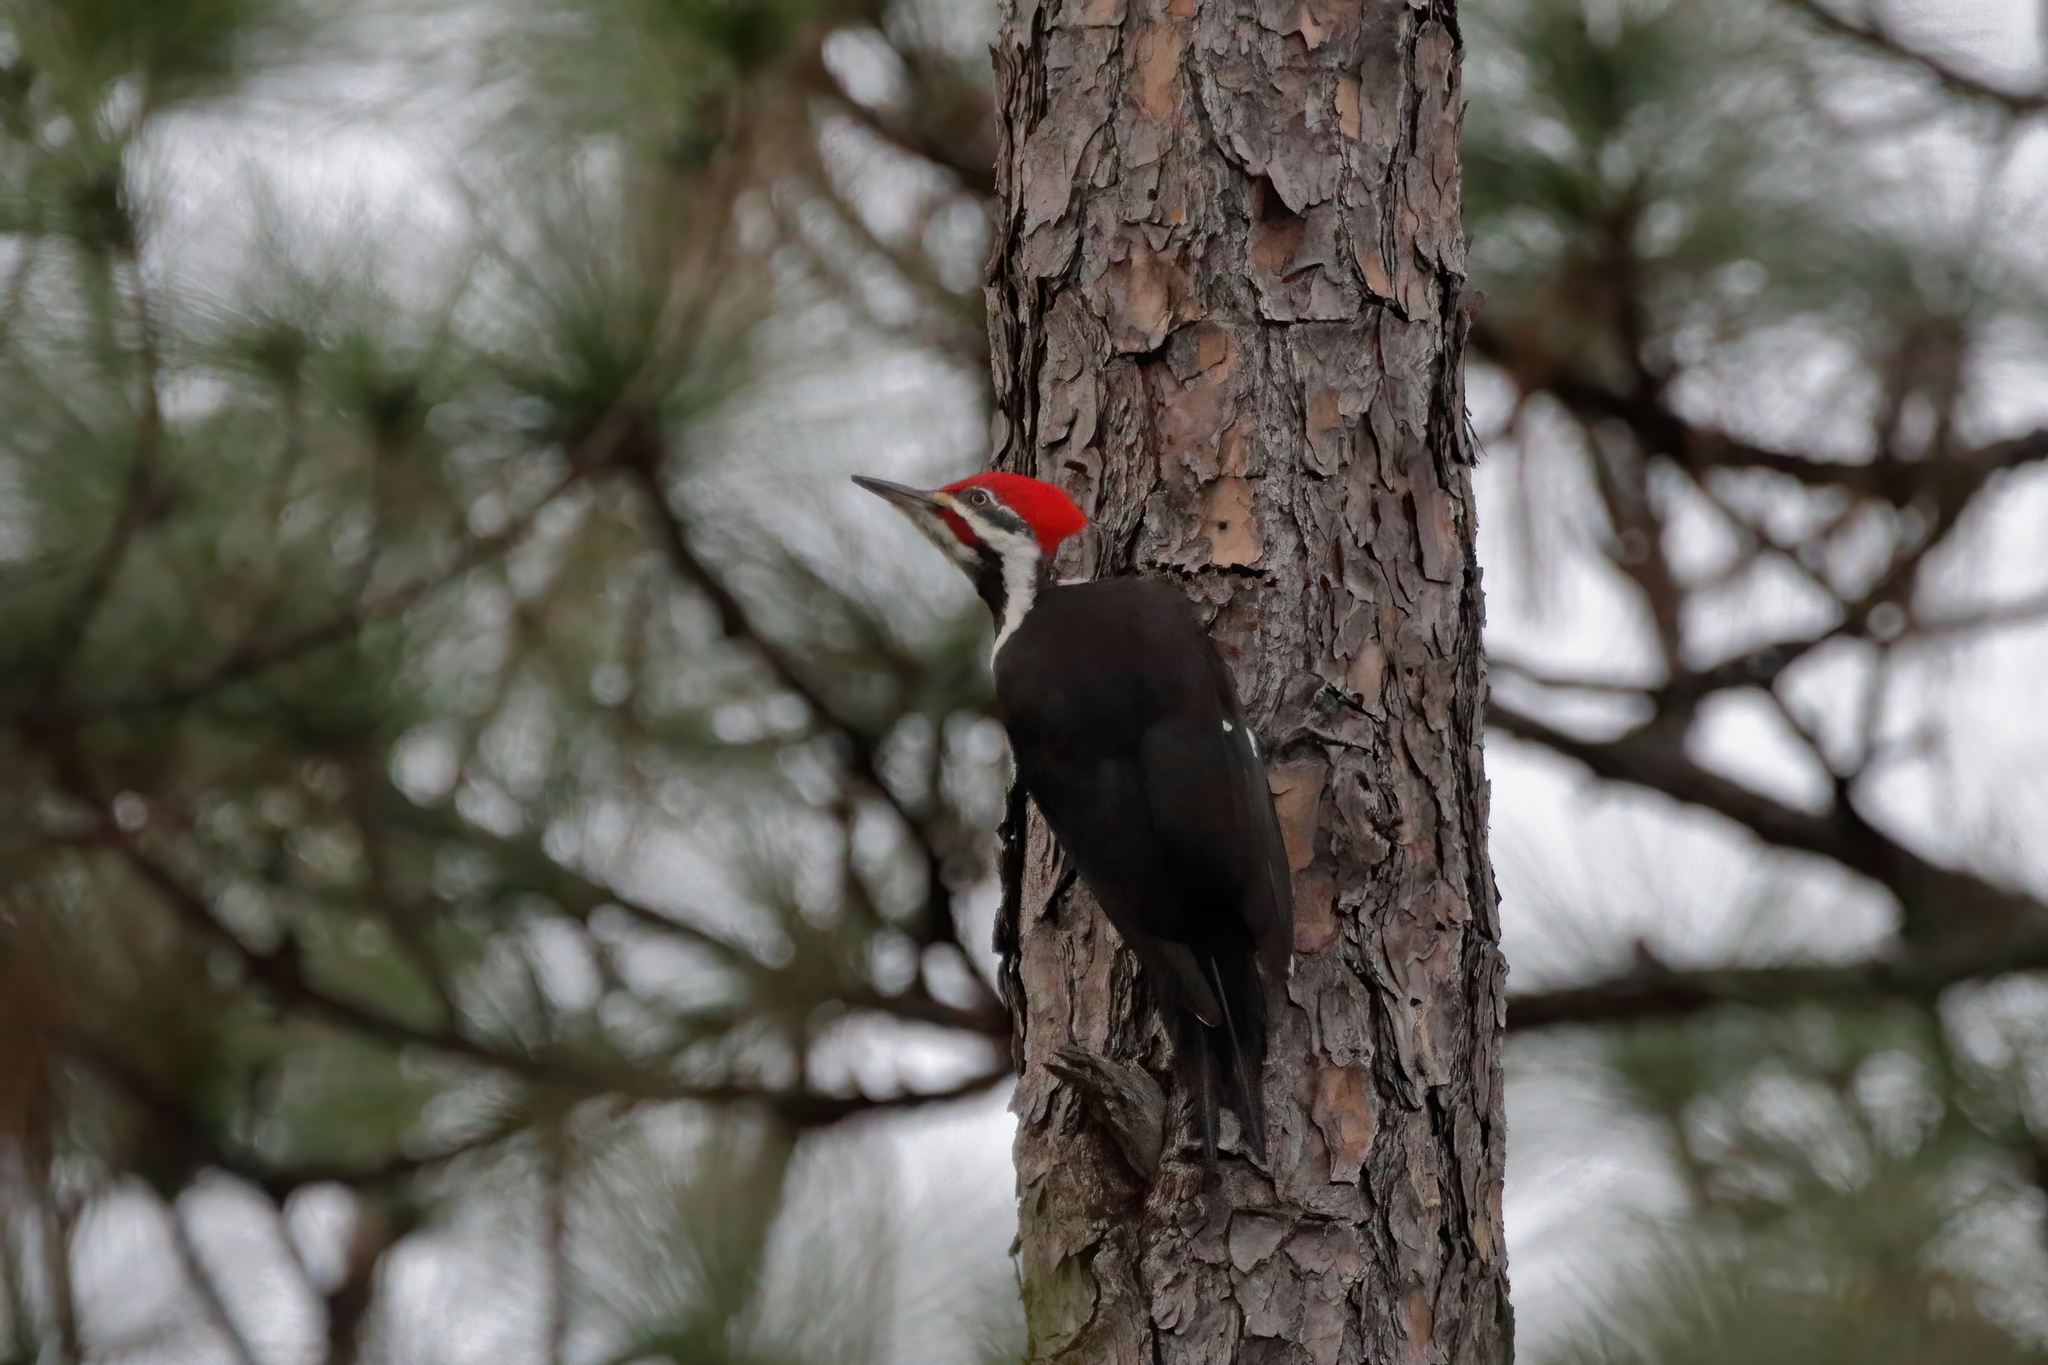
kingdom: Animalia
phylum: Chordata
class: Aves
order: Piciformes
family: Picidae
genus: Dryocopus
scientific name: Dryocopus pileatus
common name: Pileated woodpecker
